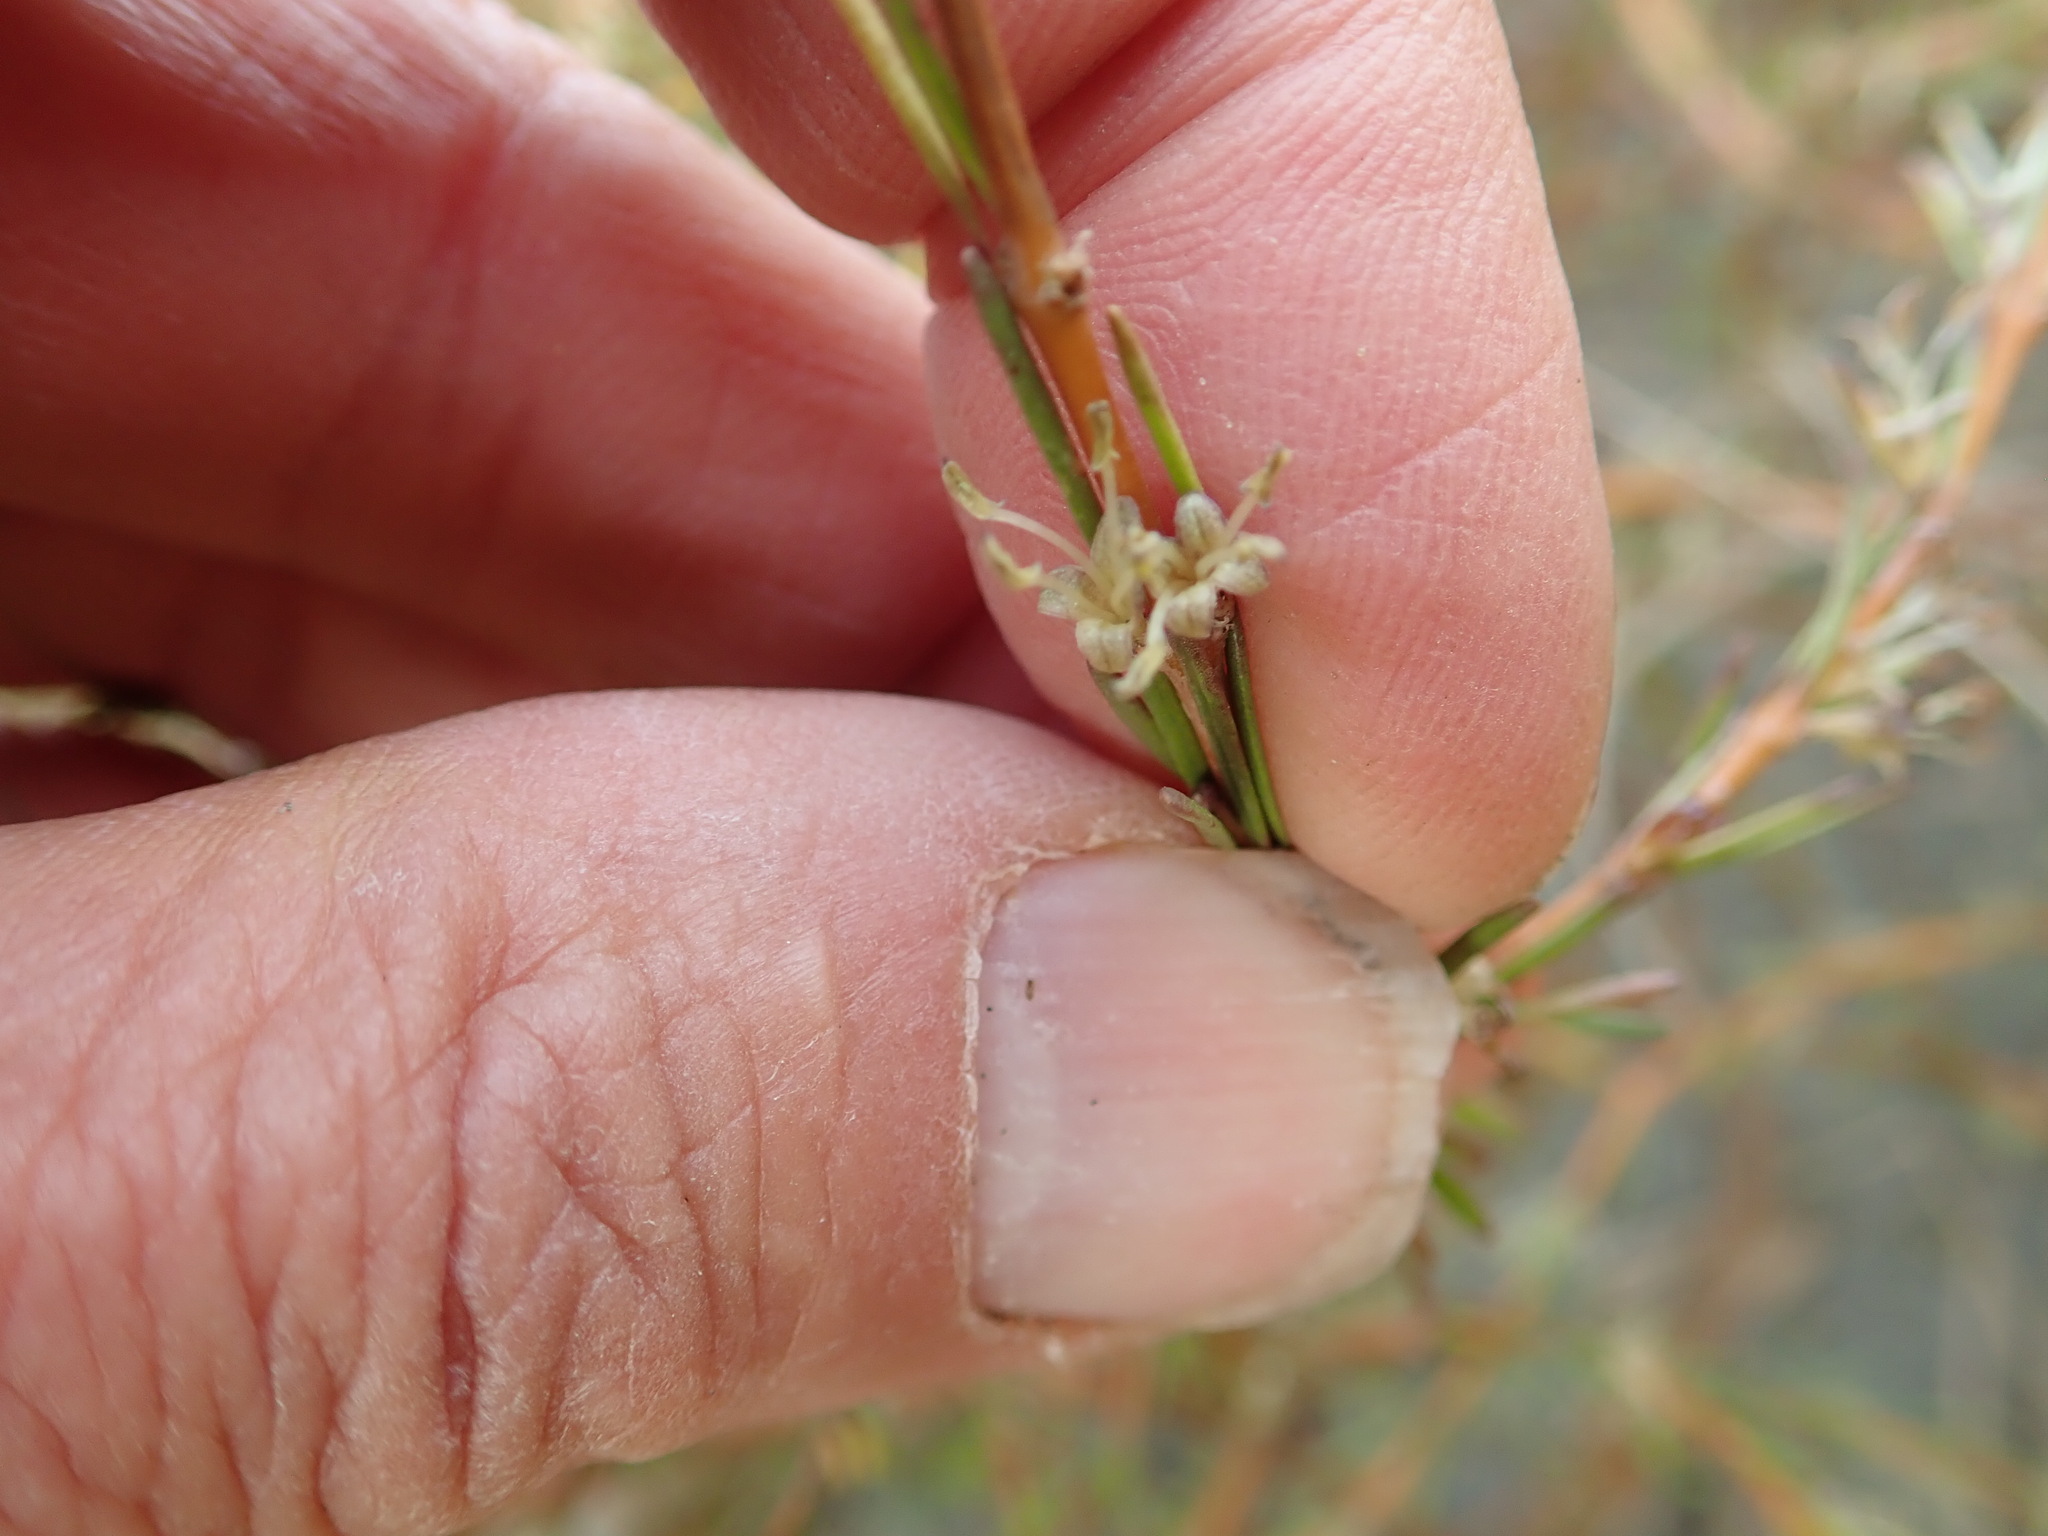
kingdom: Plantae
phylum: Tracheophyta
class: Magnoliopsida
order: Gentianales
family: Rubiaceae
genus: Coprosma
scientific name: Coprosma acerosa
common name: Sand coprosma
